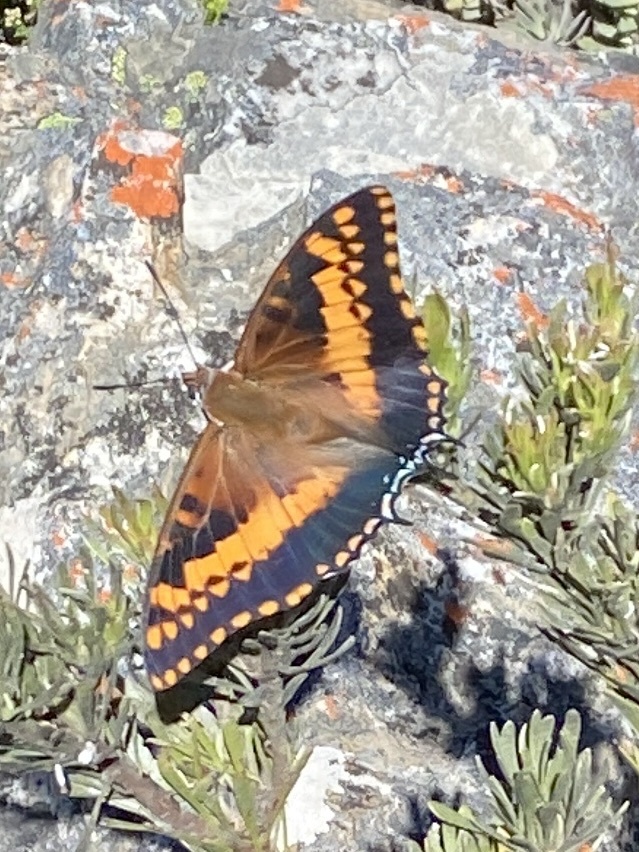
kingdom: Animalia
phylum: Arthropoda
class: Insecta
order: Lepidoptera
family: Nymphalidae
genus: Charaxes
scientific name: Charaxes pelias
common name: Protea charaxes
